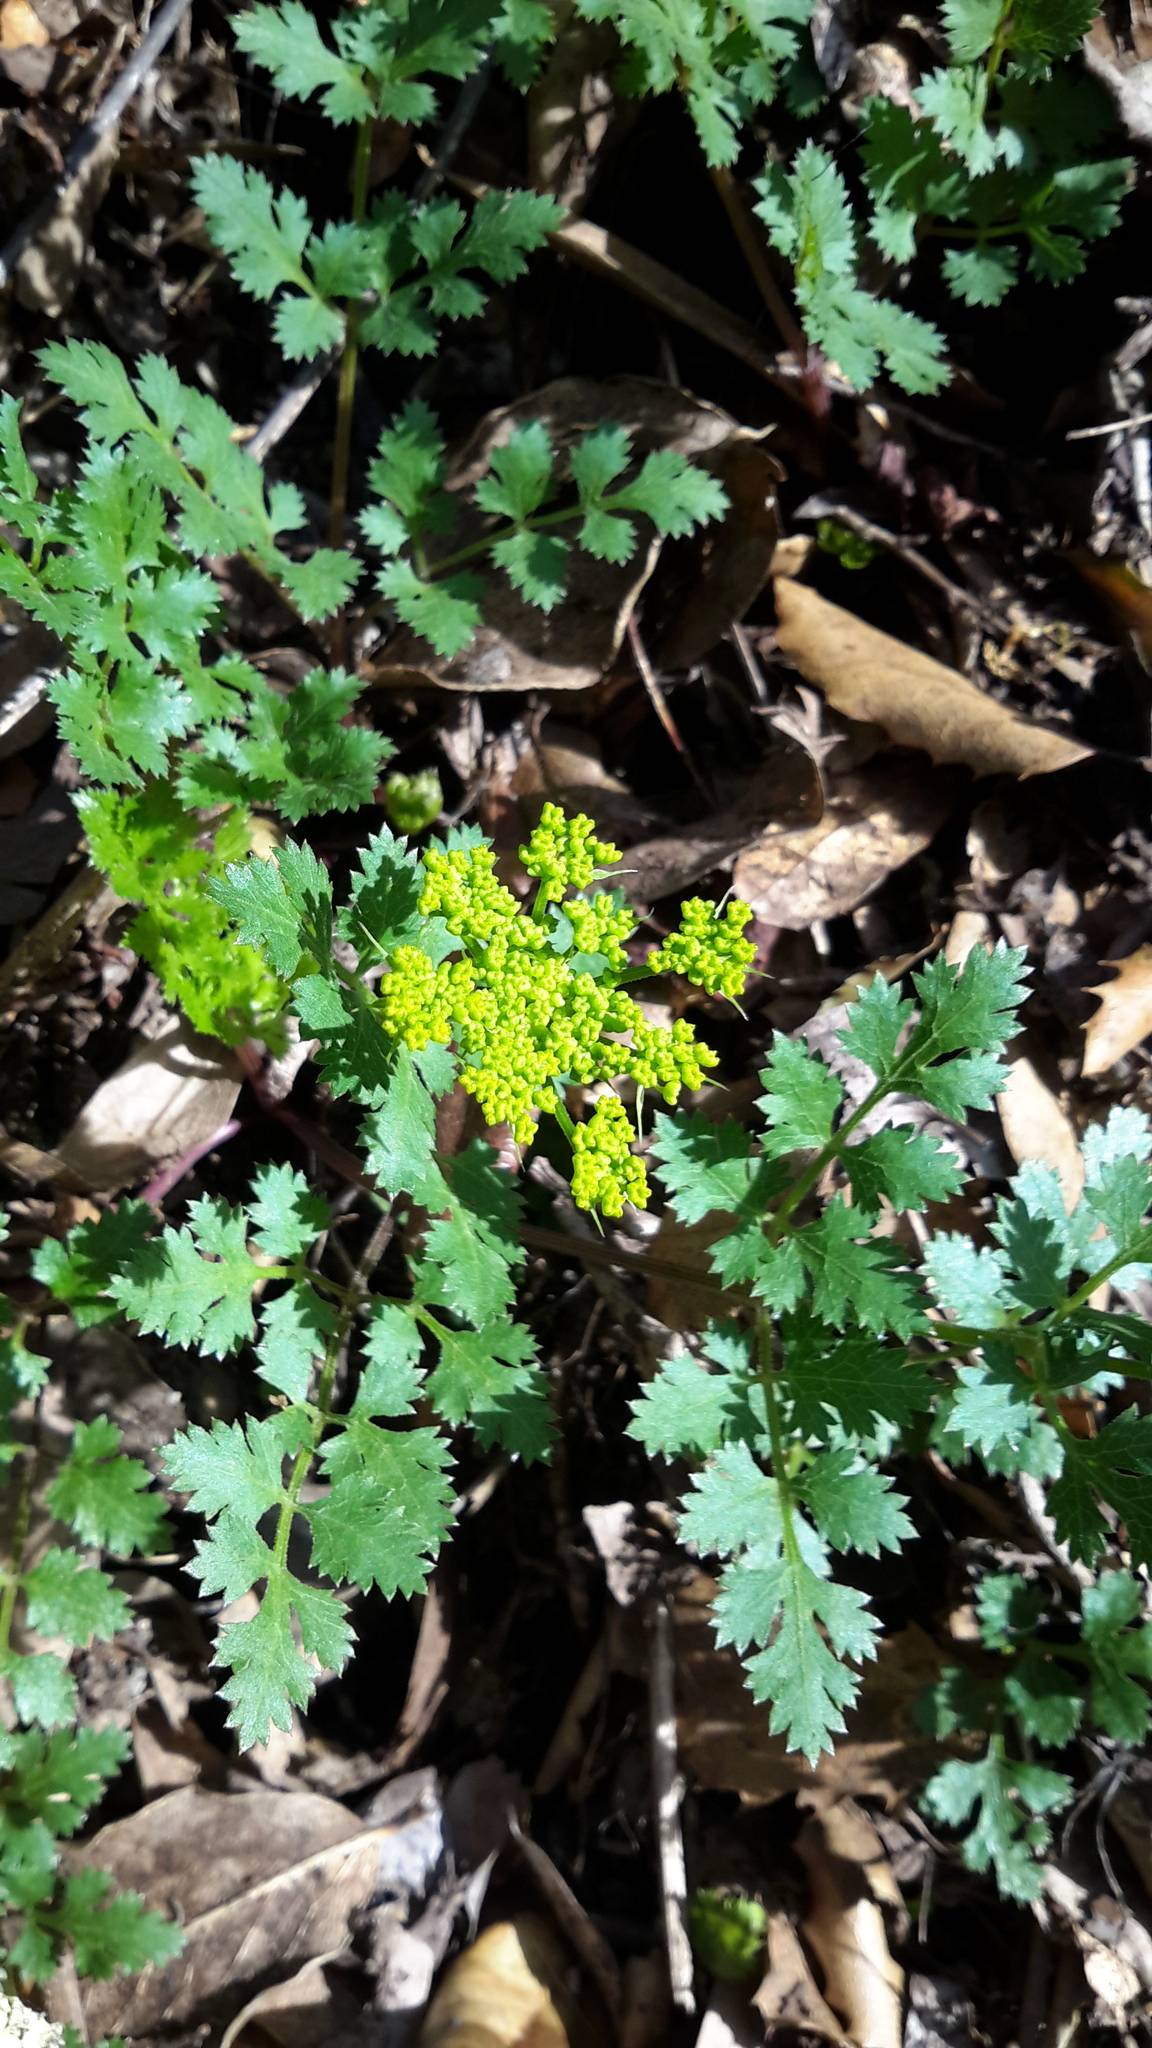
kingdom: Plantae
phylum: Tracheophyta
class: Magnoliopsida
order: Apiales
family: Apiaceae
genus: Tauschia
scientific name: Tauschia kelloggii
